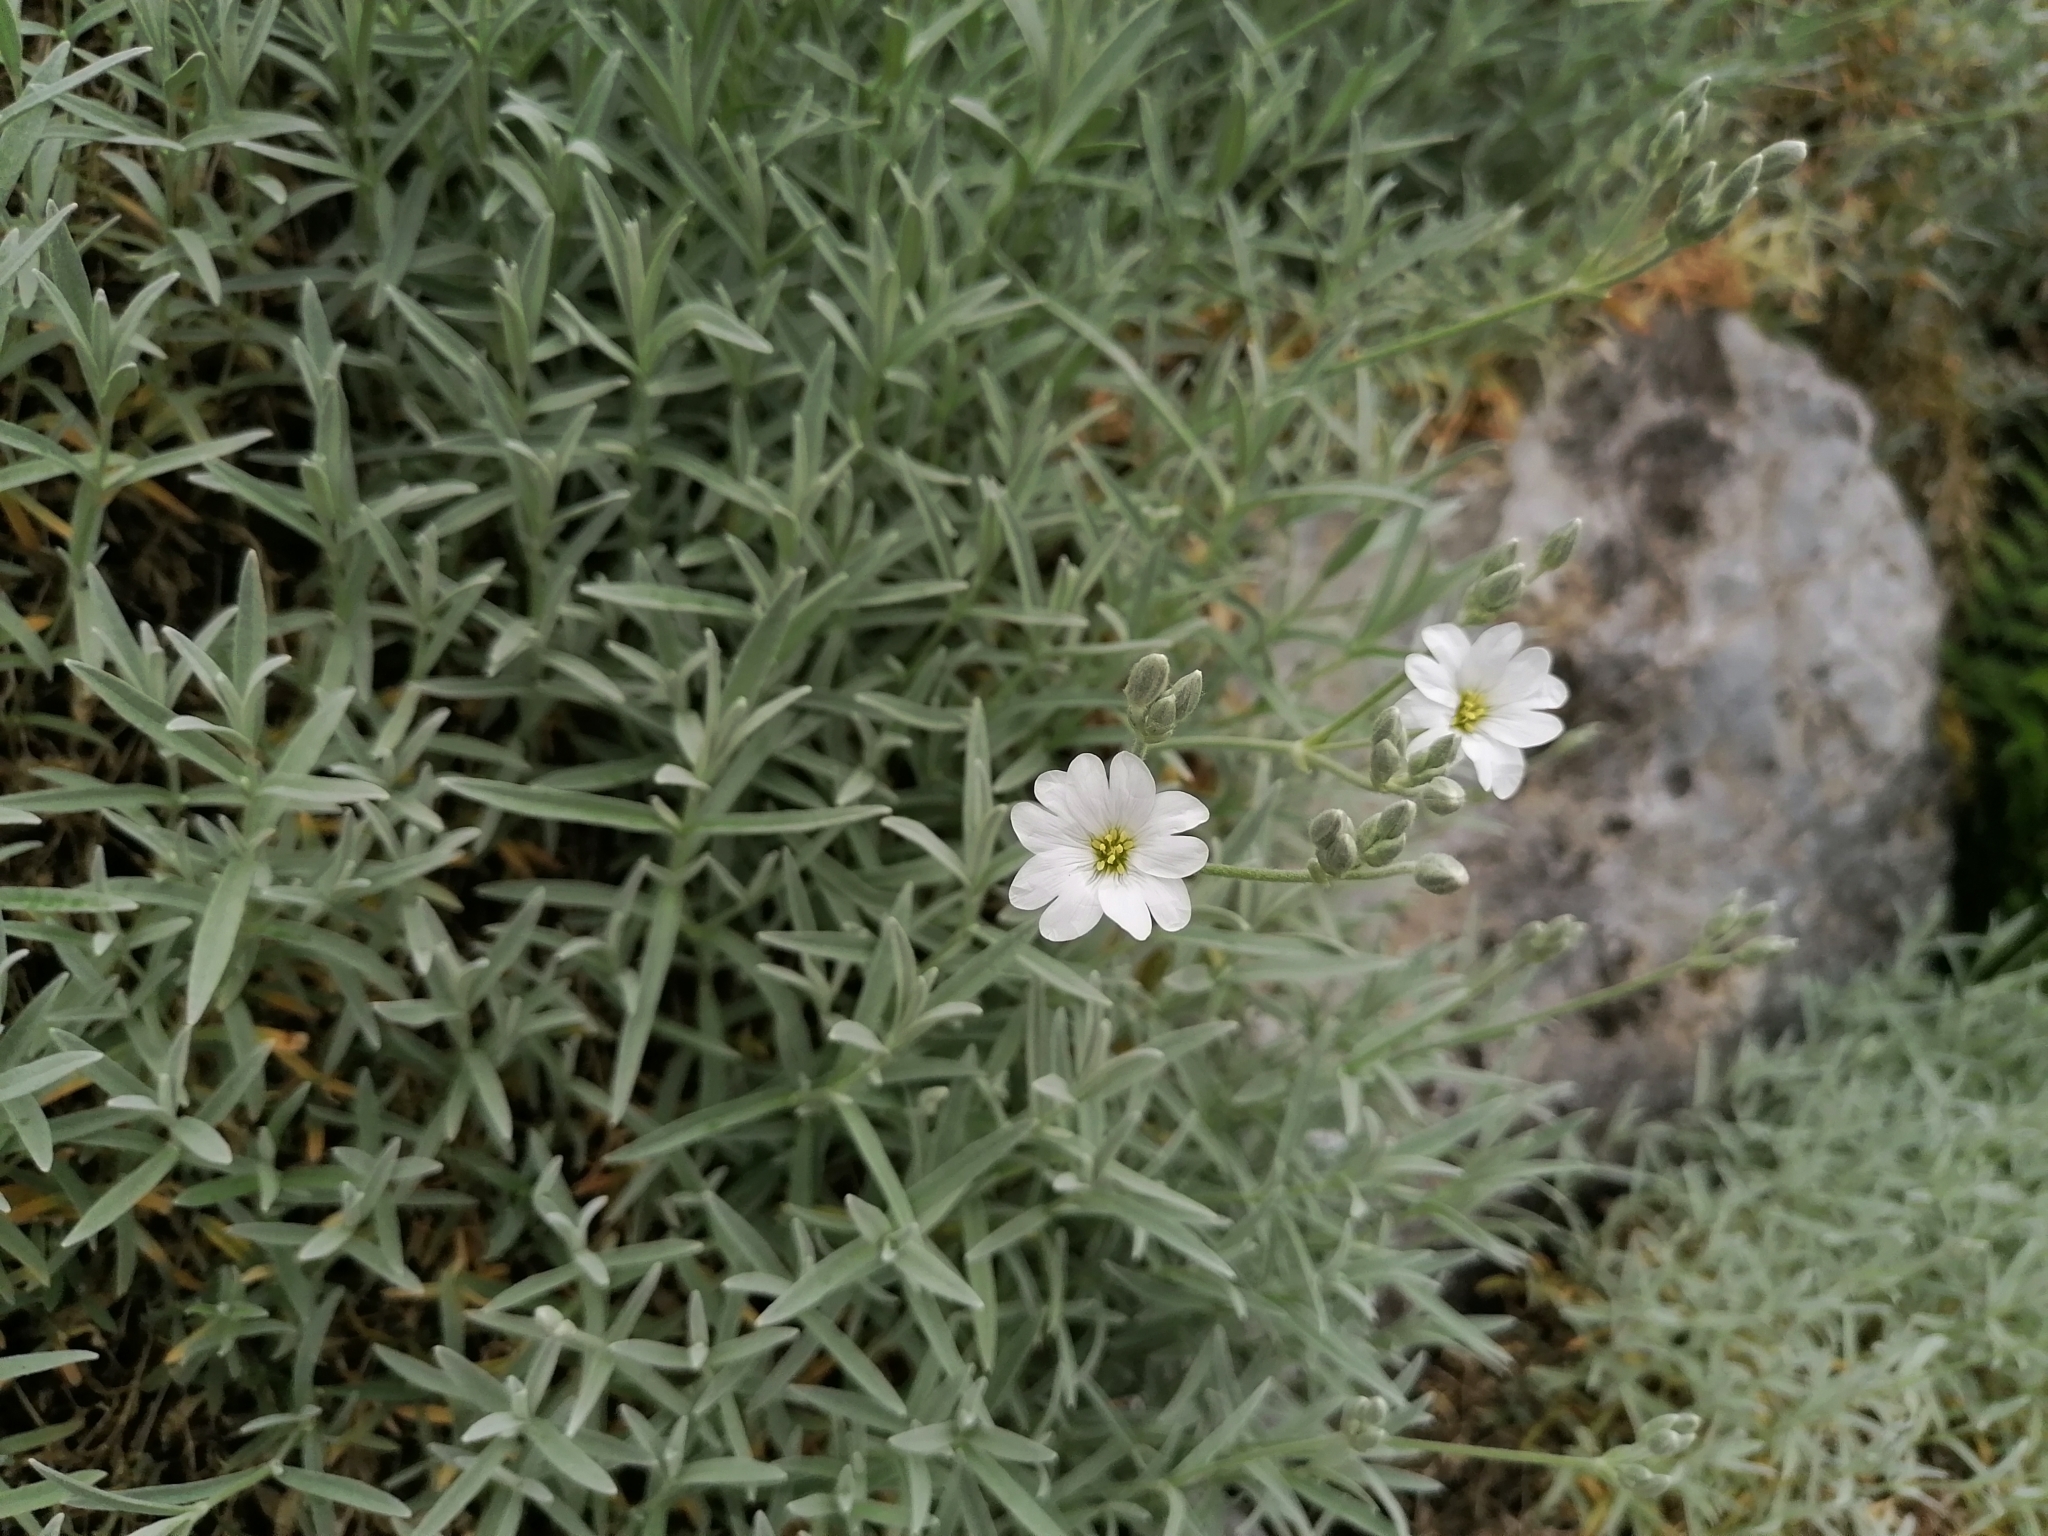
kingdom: Plantae
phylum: Tracheophyta
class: Magnoliopsida
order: Caryophyllales
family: Caryophyllaceae
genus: Cerastium
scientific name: Cerastium tomentosum
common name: Snow-in-summer
